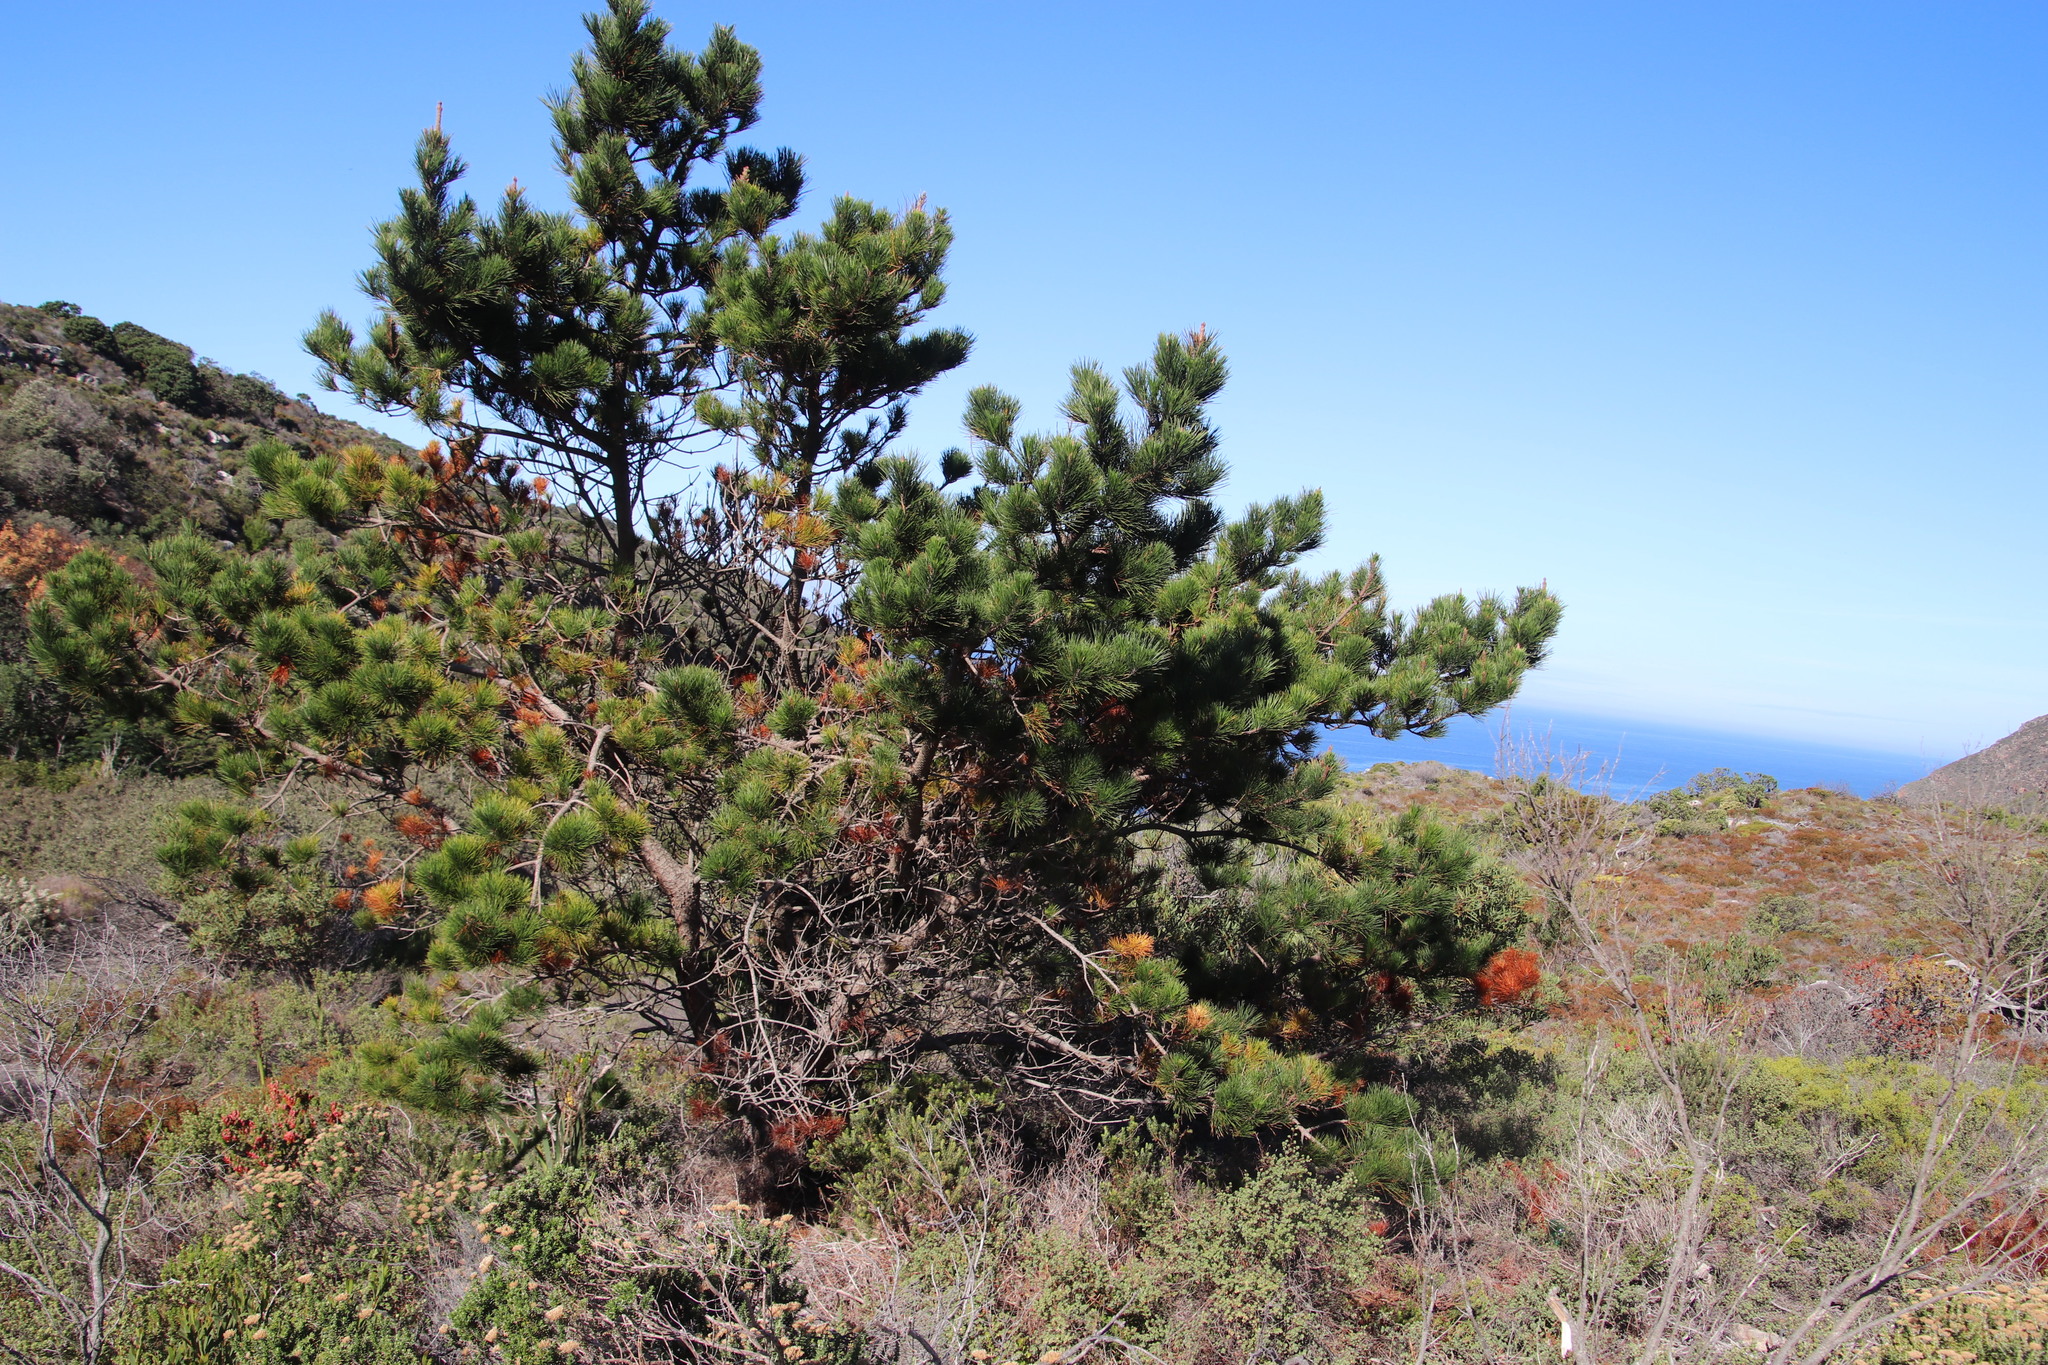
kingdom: Plantae
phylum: Tracheophyta
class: Pinopsida
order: Pinales
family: Pinaceae
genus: Pinus
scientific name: Pinus halepensis
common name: Aleppo pine
